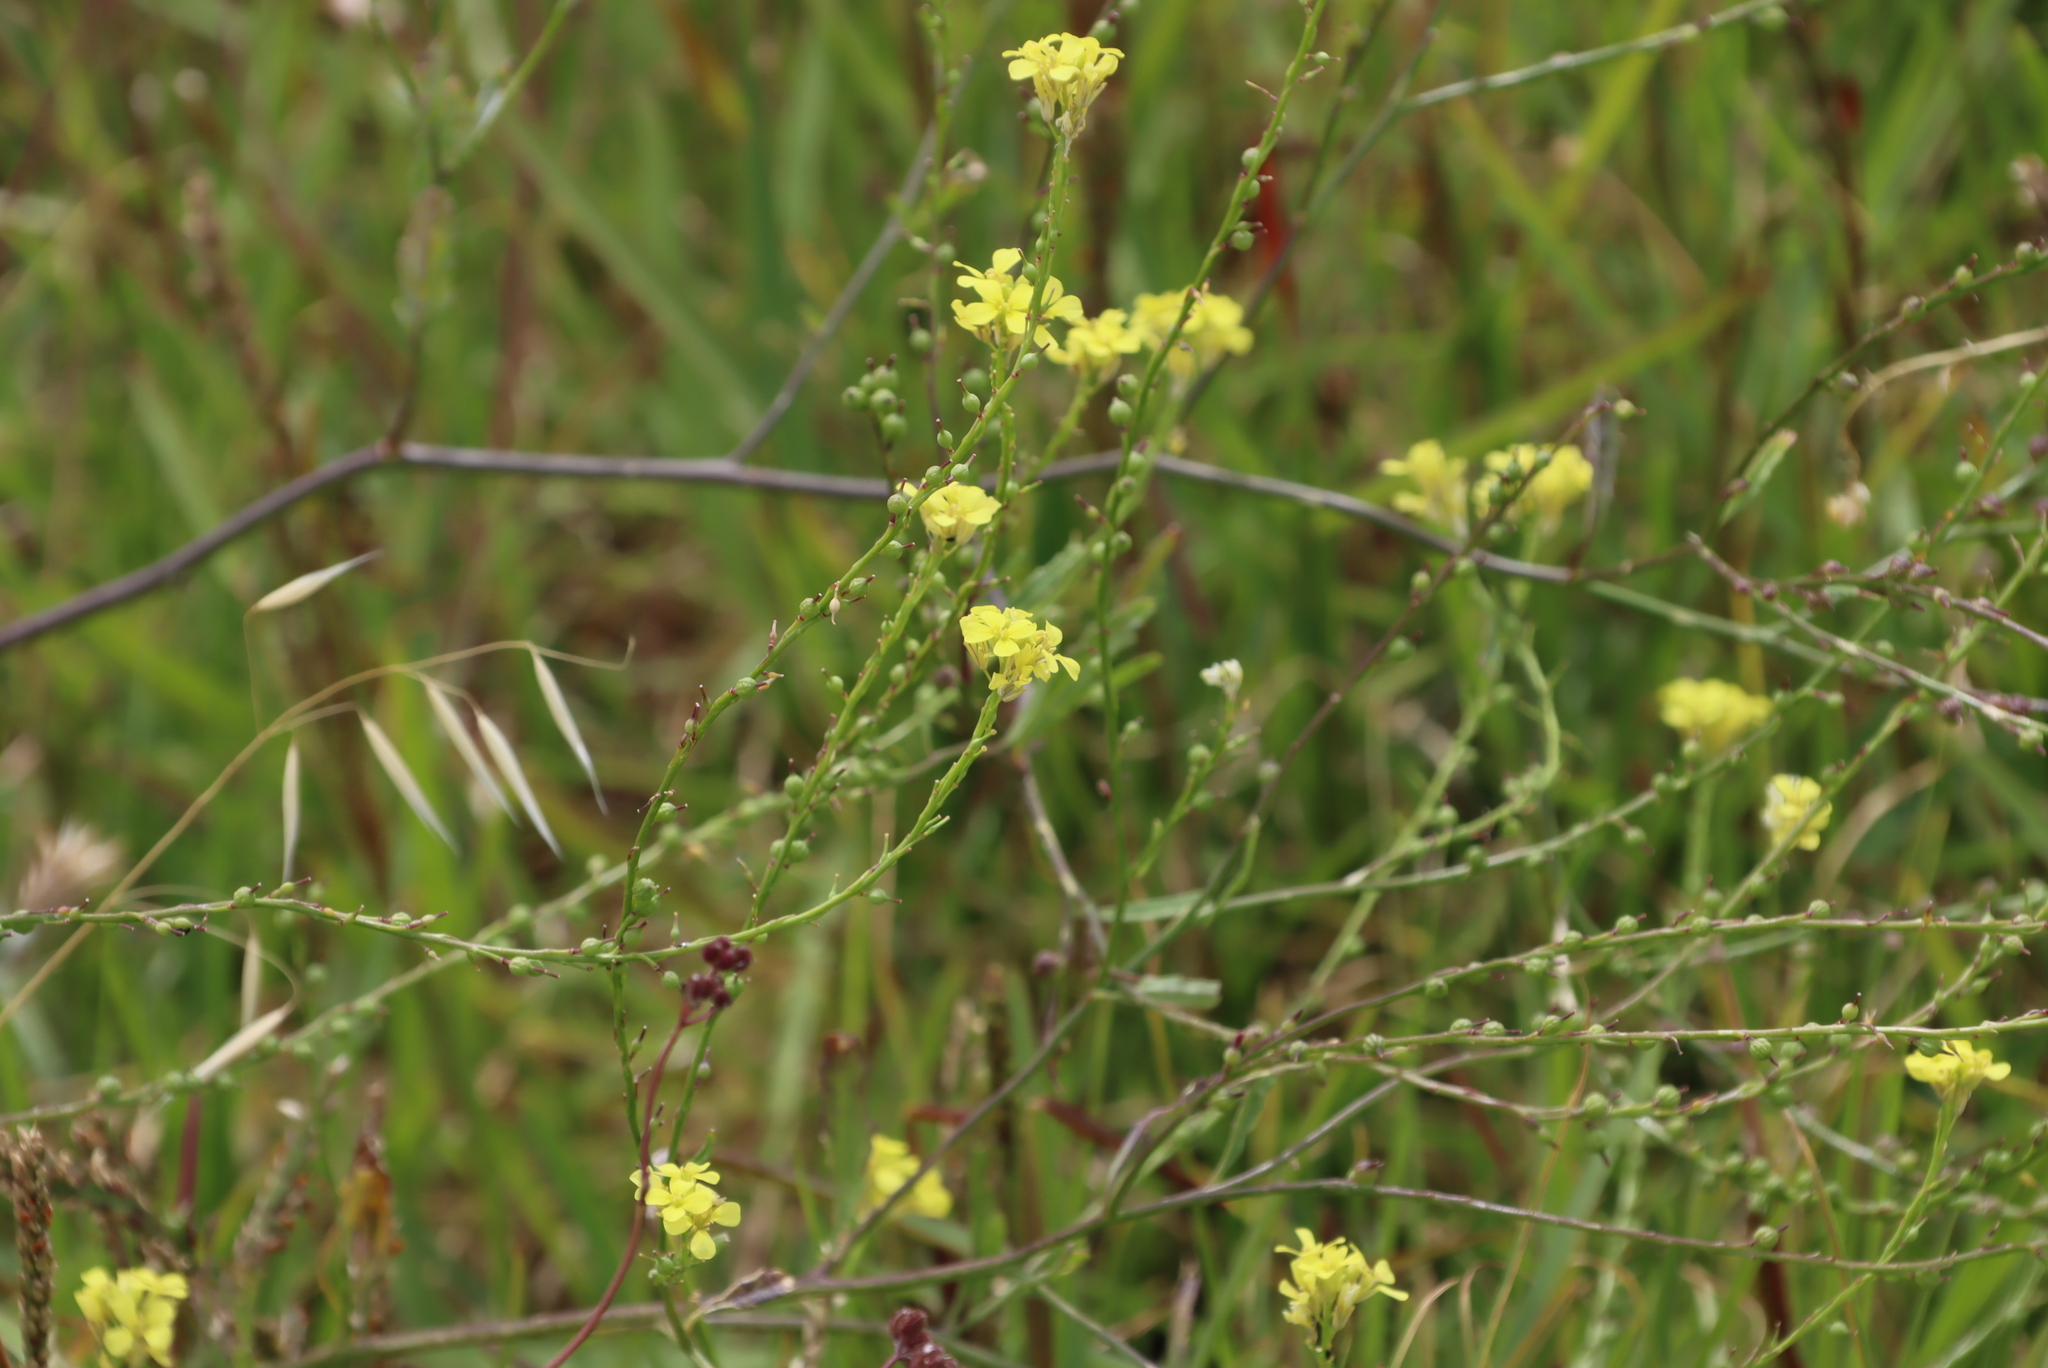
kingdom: Plantae
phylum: Tracheophyta
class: Magnoliopsida
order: Brassicales
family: Brassicaceae
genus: Rapistrum
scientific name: Rapistrum rugosum
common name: Annual bastardcabbage
